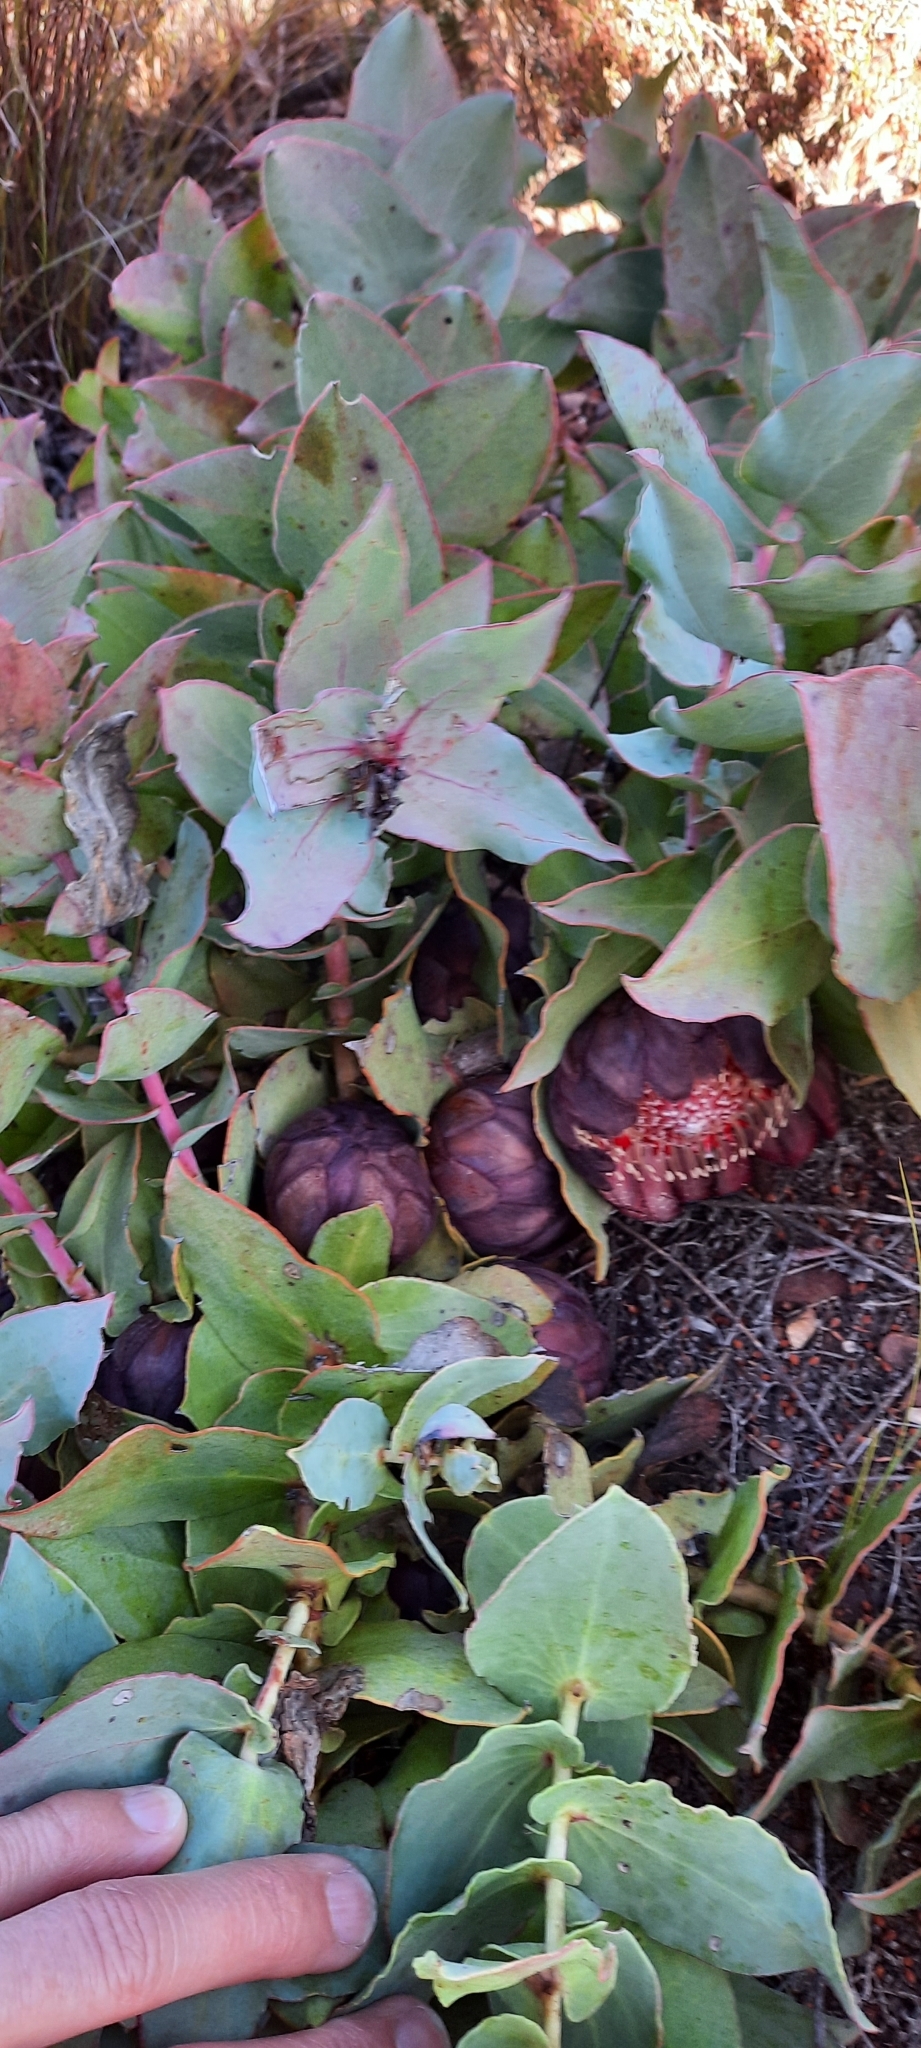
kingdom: Plantae
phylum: Tracheophyta
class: Magnoliopsida
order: Proteales
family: Proteaceae
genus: Protea
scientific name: Protea amplexicaulis
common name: Clasping-leaf sugarbush
